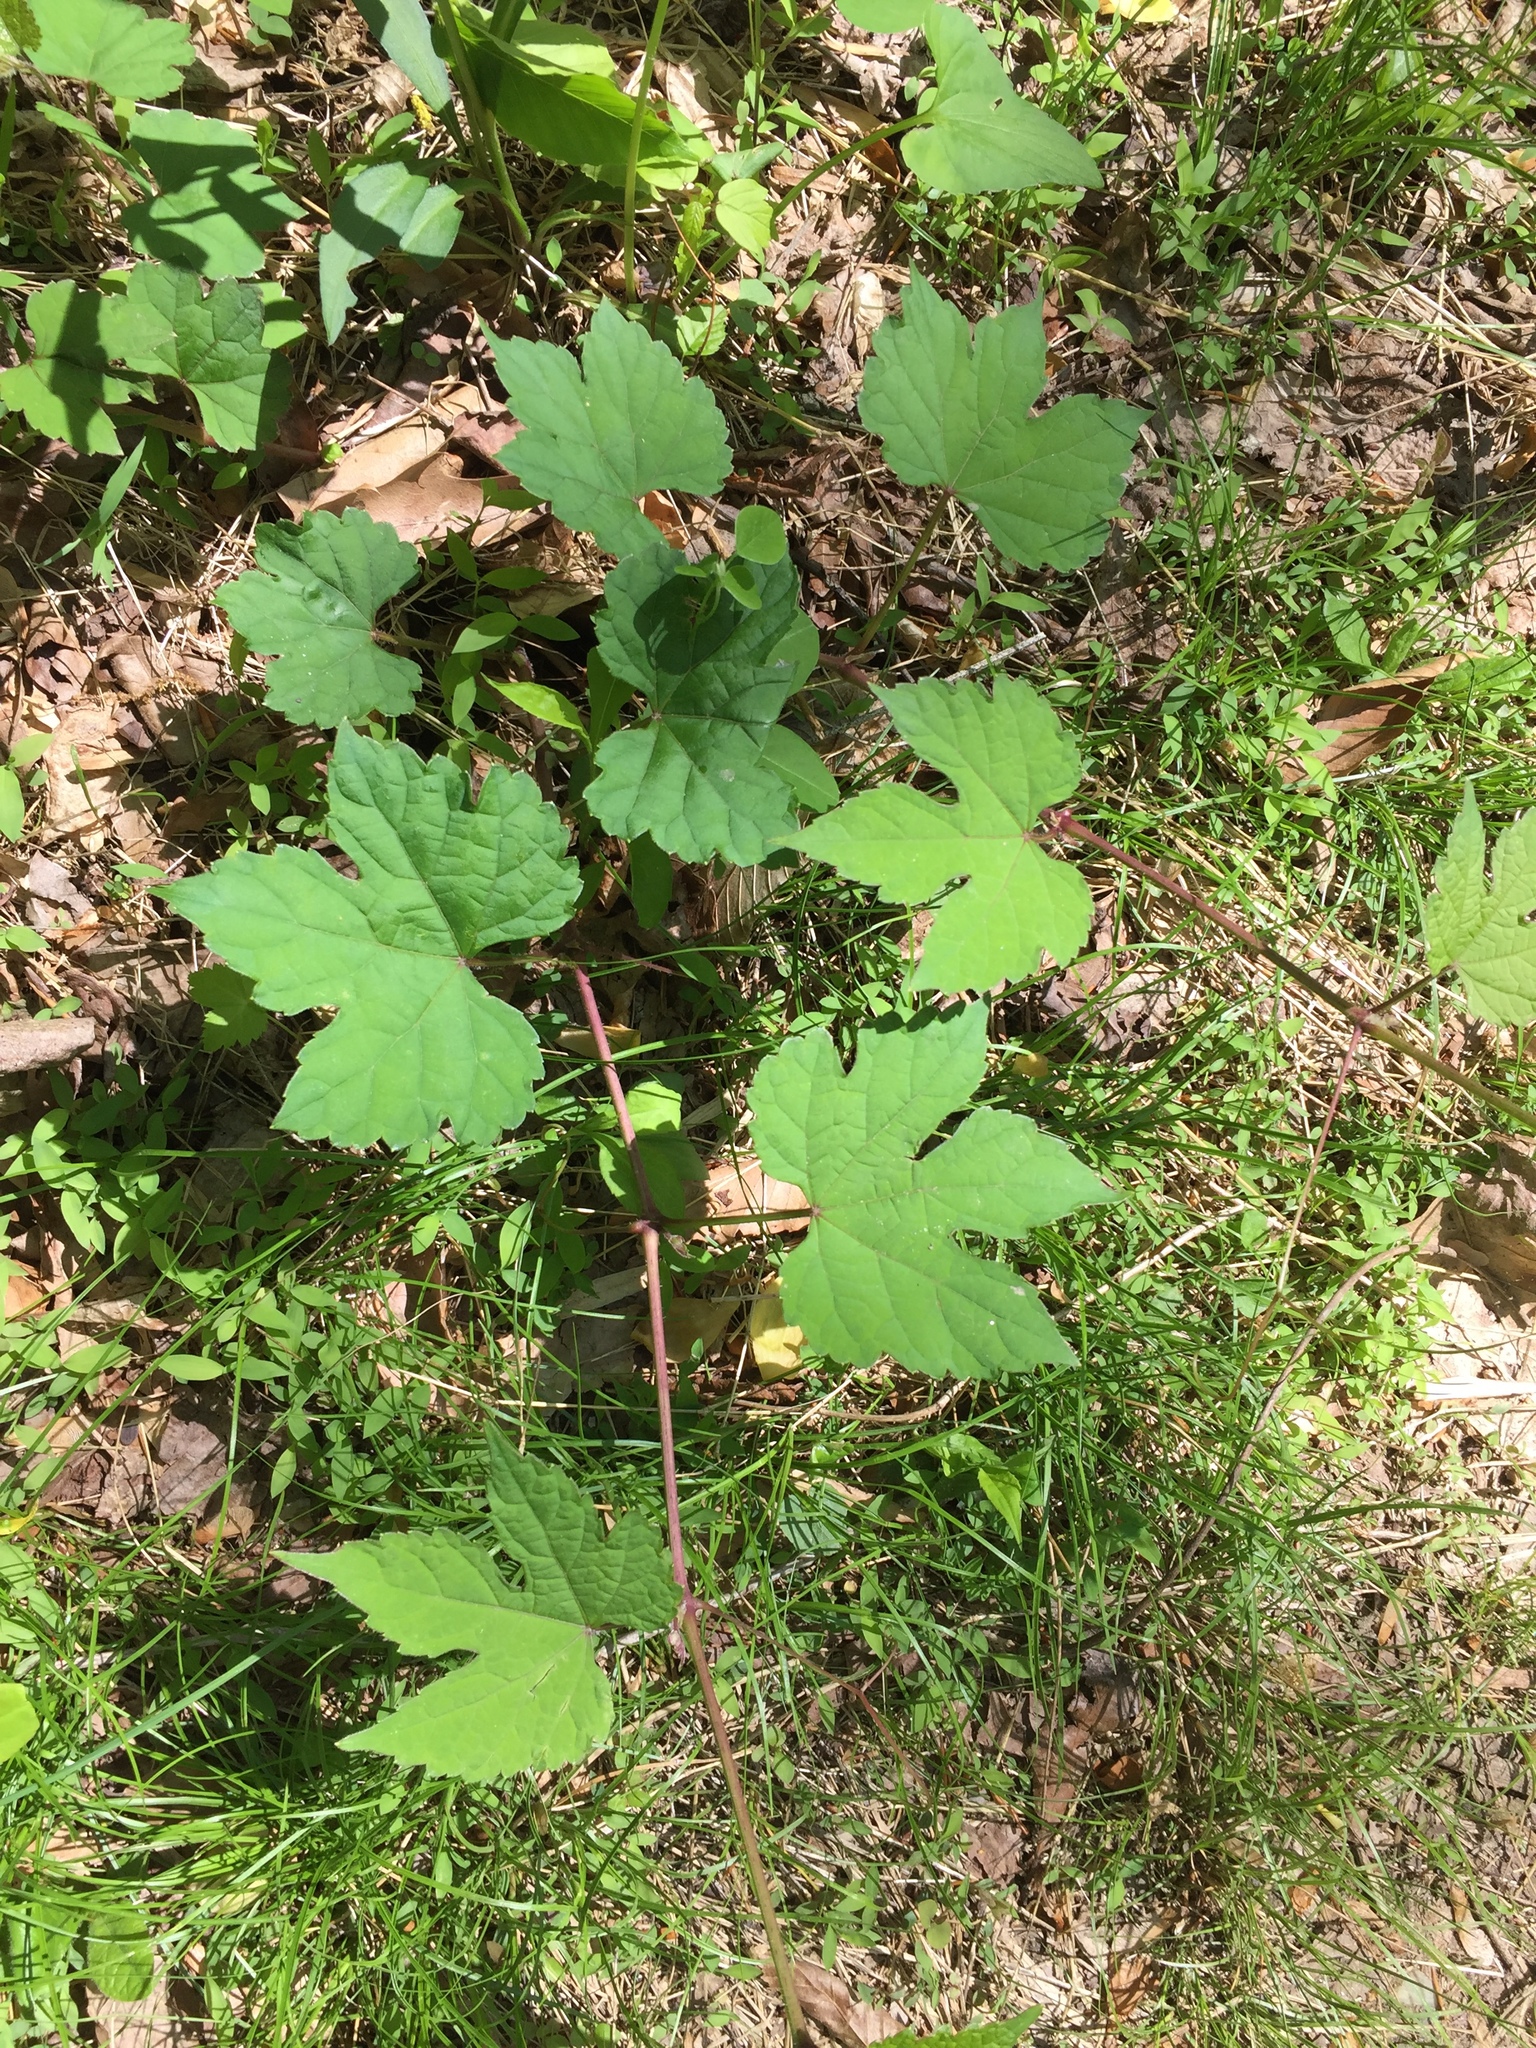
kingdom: Plantae
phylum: Tracheophyta
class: Magnoliopsida
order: Vitales
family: Vitaceae
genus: Ampelopsis
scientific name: Ampelopsis glandulosa
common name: Amur peppervine
